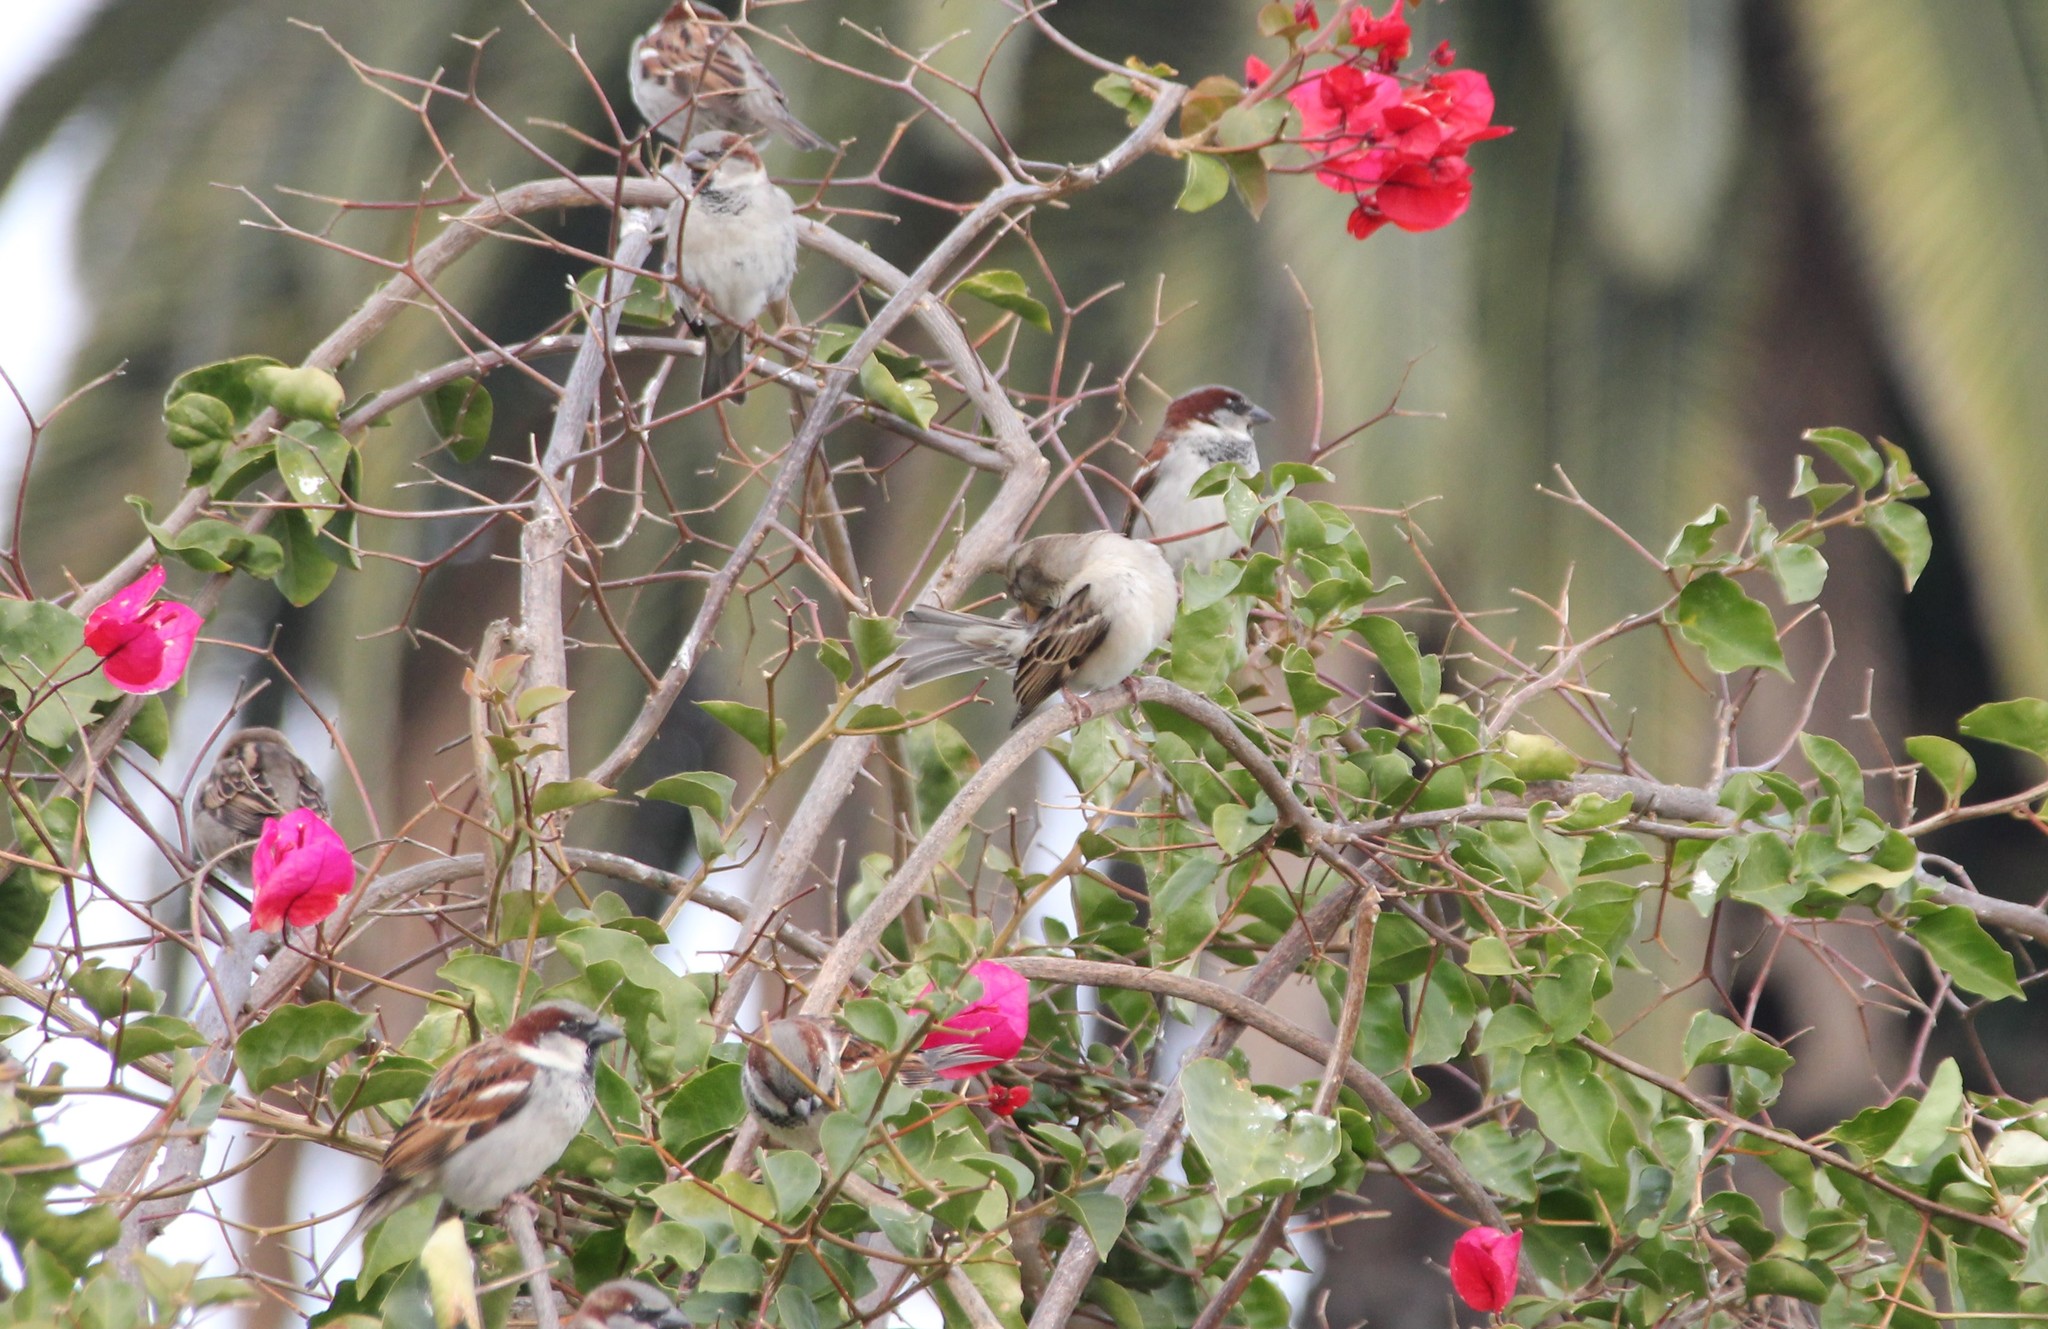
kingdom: Animalia
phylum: Chordata
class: Aves
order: Passeriformes
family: Passeridae
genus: Passer
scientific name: Passer domesticus
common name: House sparrow
